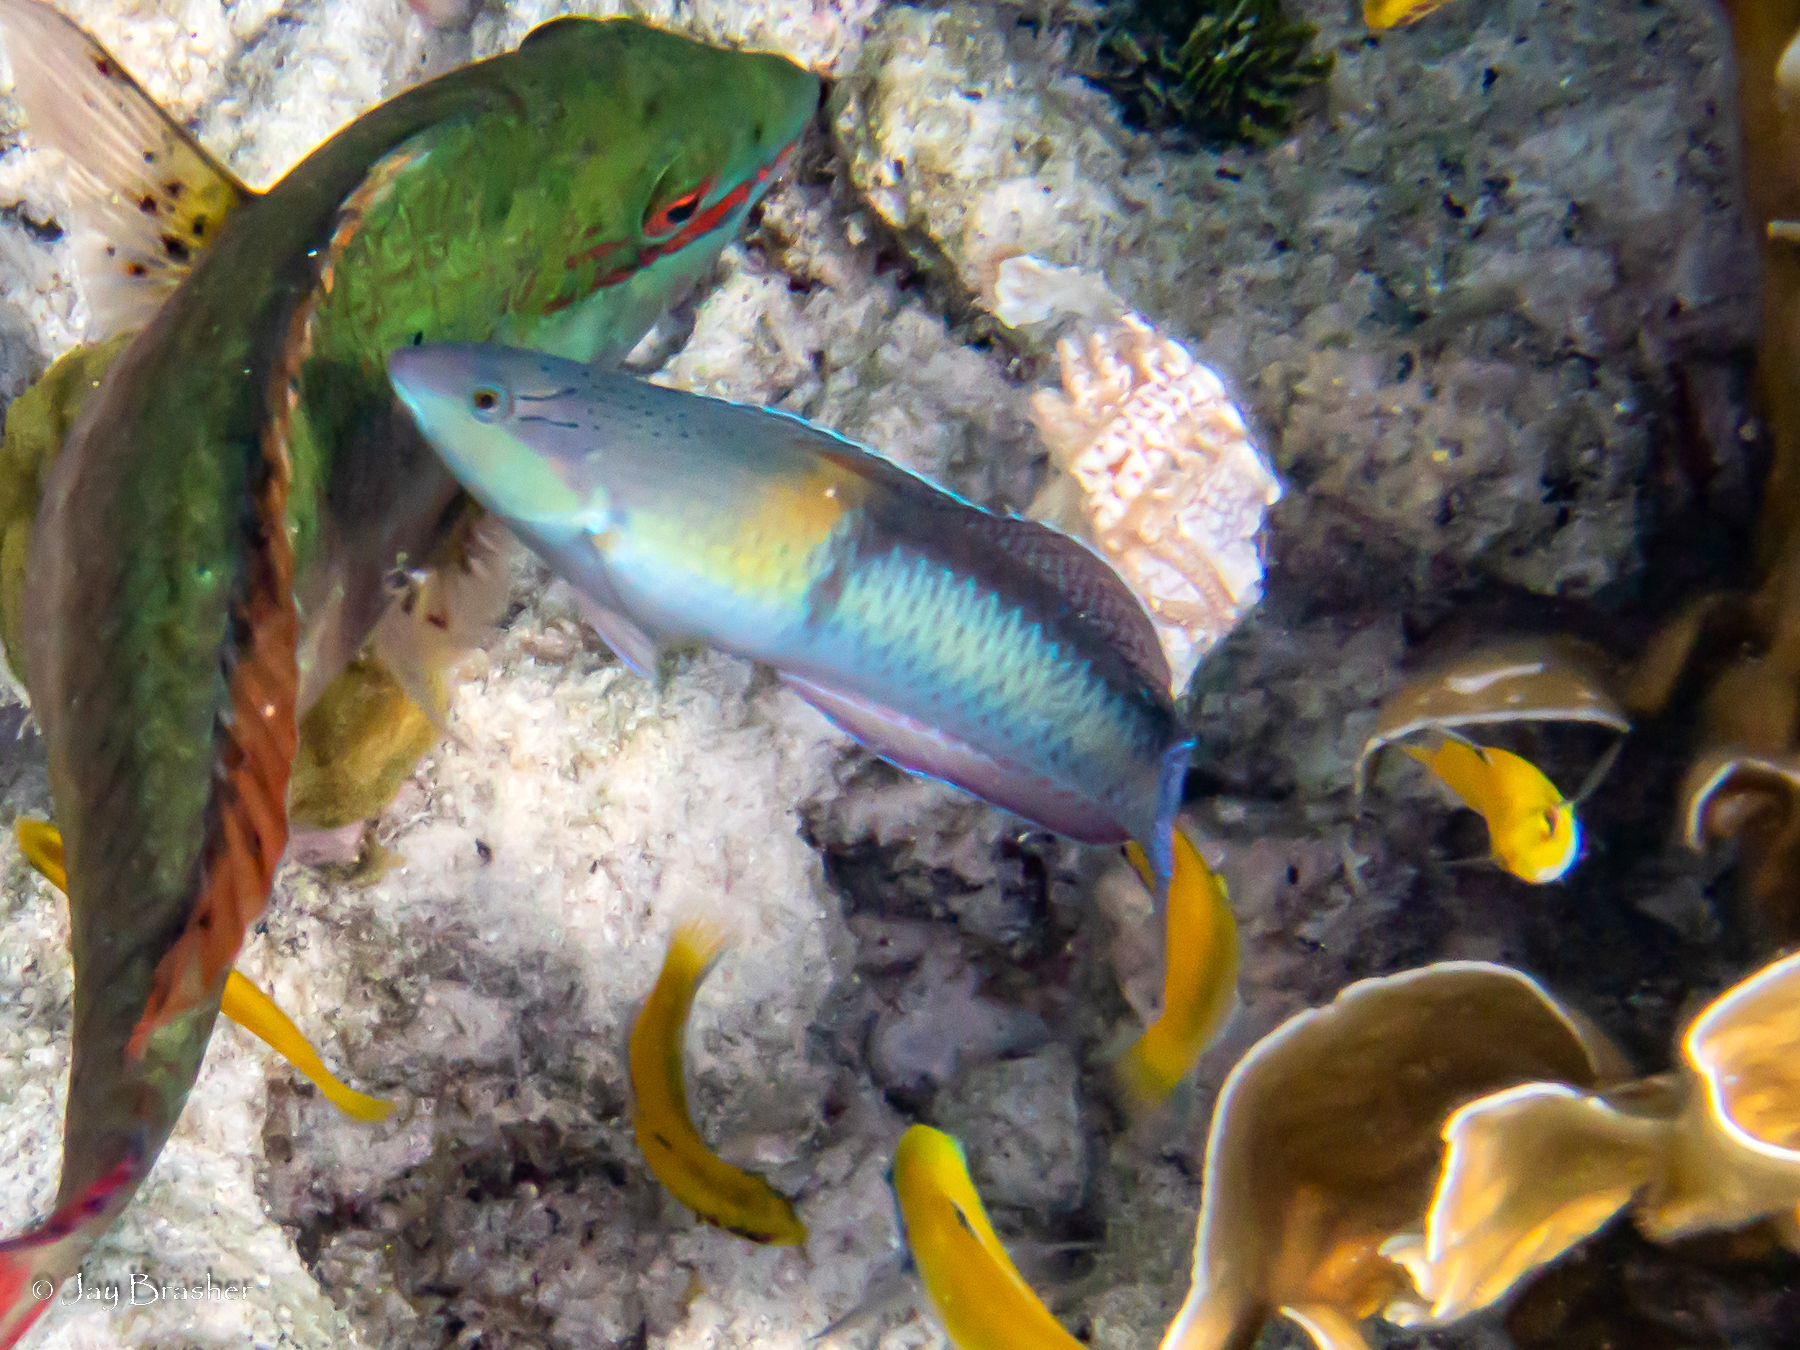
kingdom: Animalia
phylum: Chordata
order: Perciformes
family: Labridae
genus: Halichoeres
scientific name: Halichoeres garnoti
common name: Yellowhead wrasse
